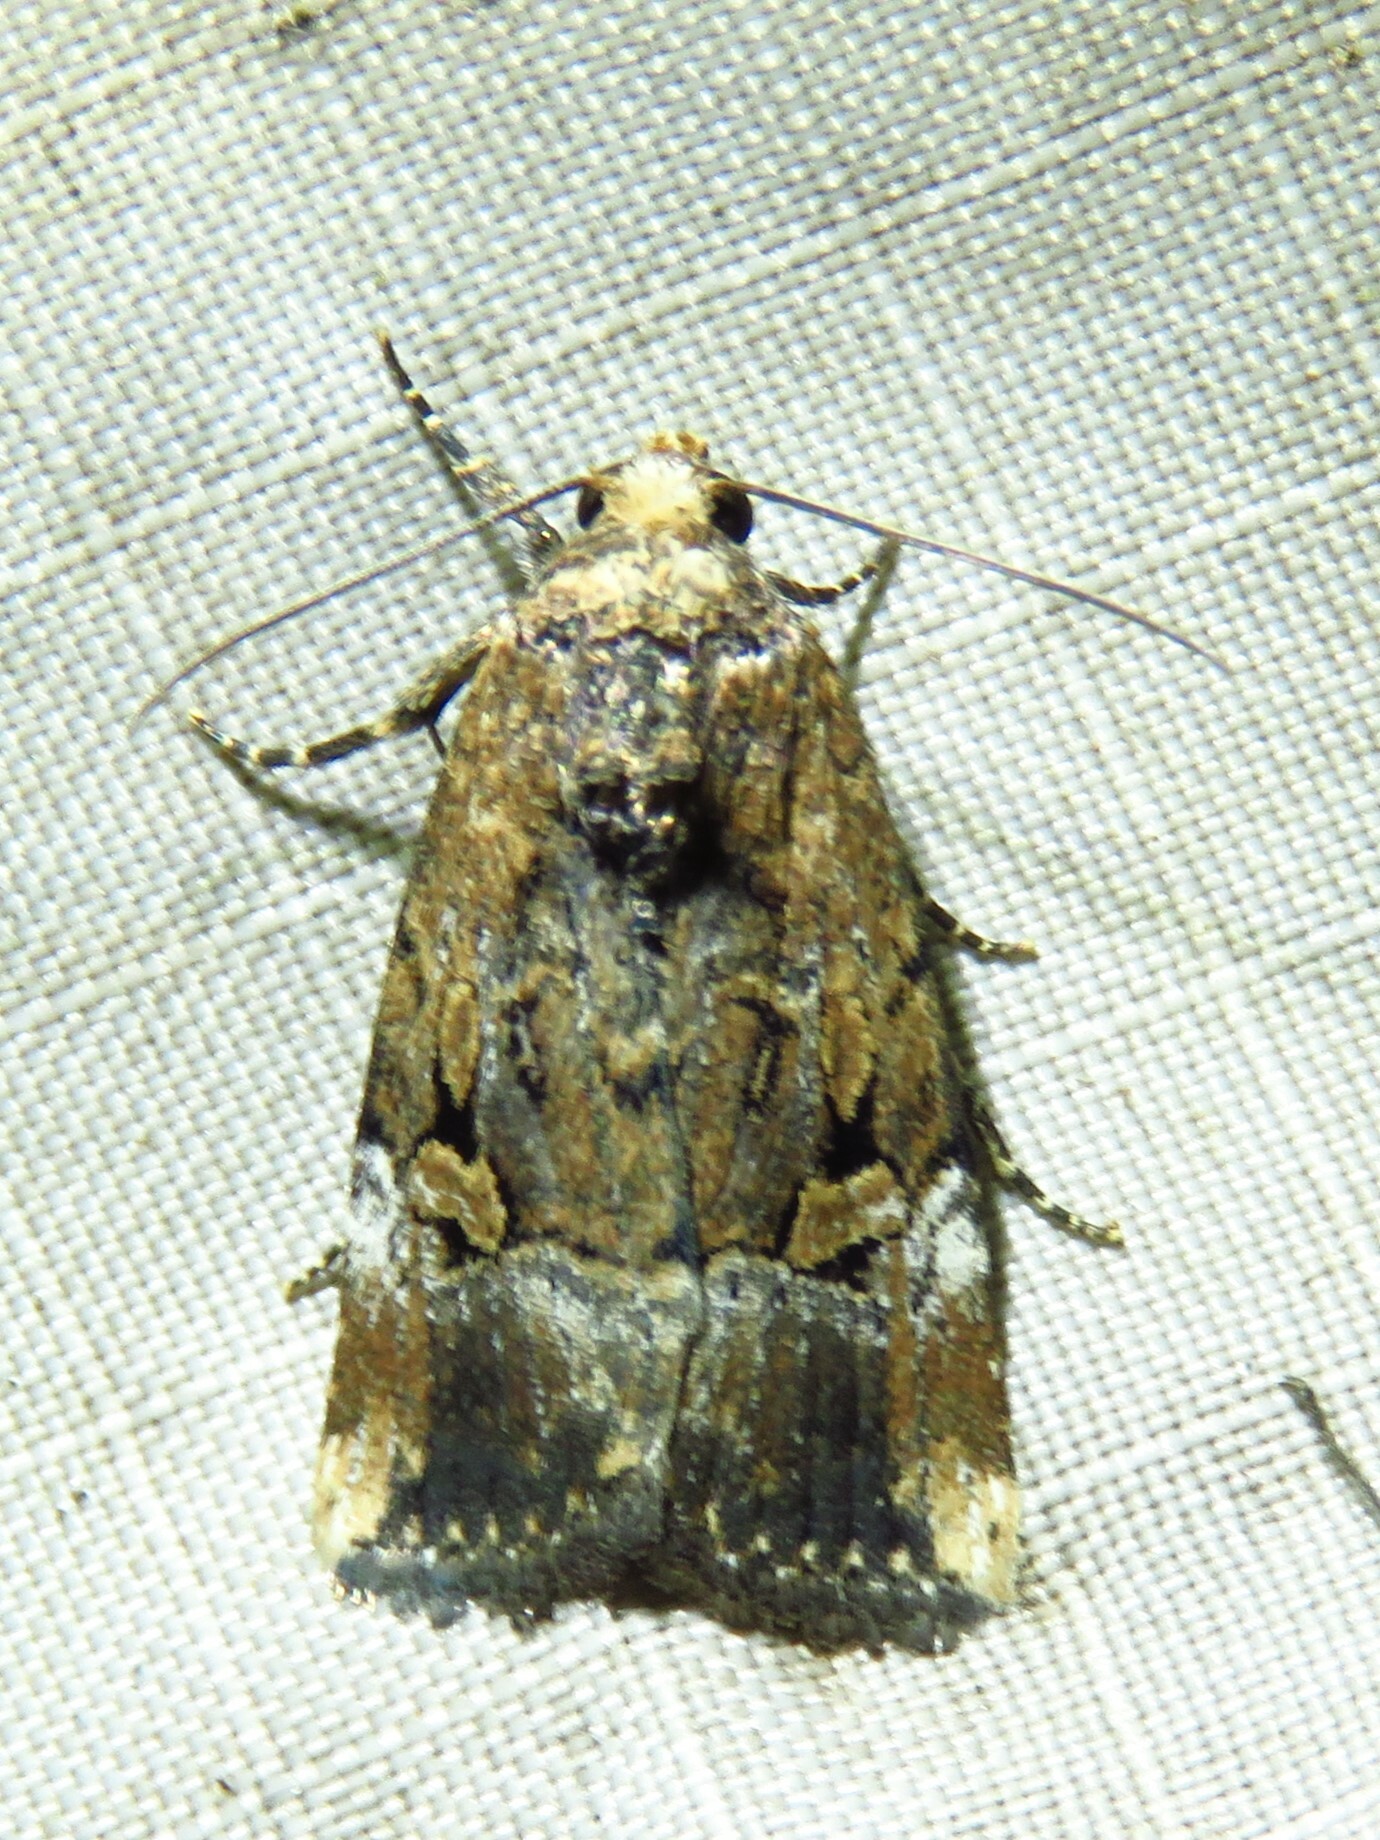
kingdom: Animalia
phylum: Arthropoda
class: Insecta
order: Lepidoptera
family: Noctuidae
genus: Elaphria
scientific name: Elaphria chalcedonia
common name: Chalcedony midget
